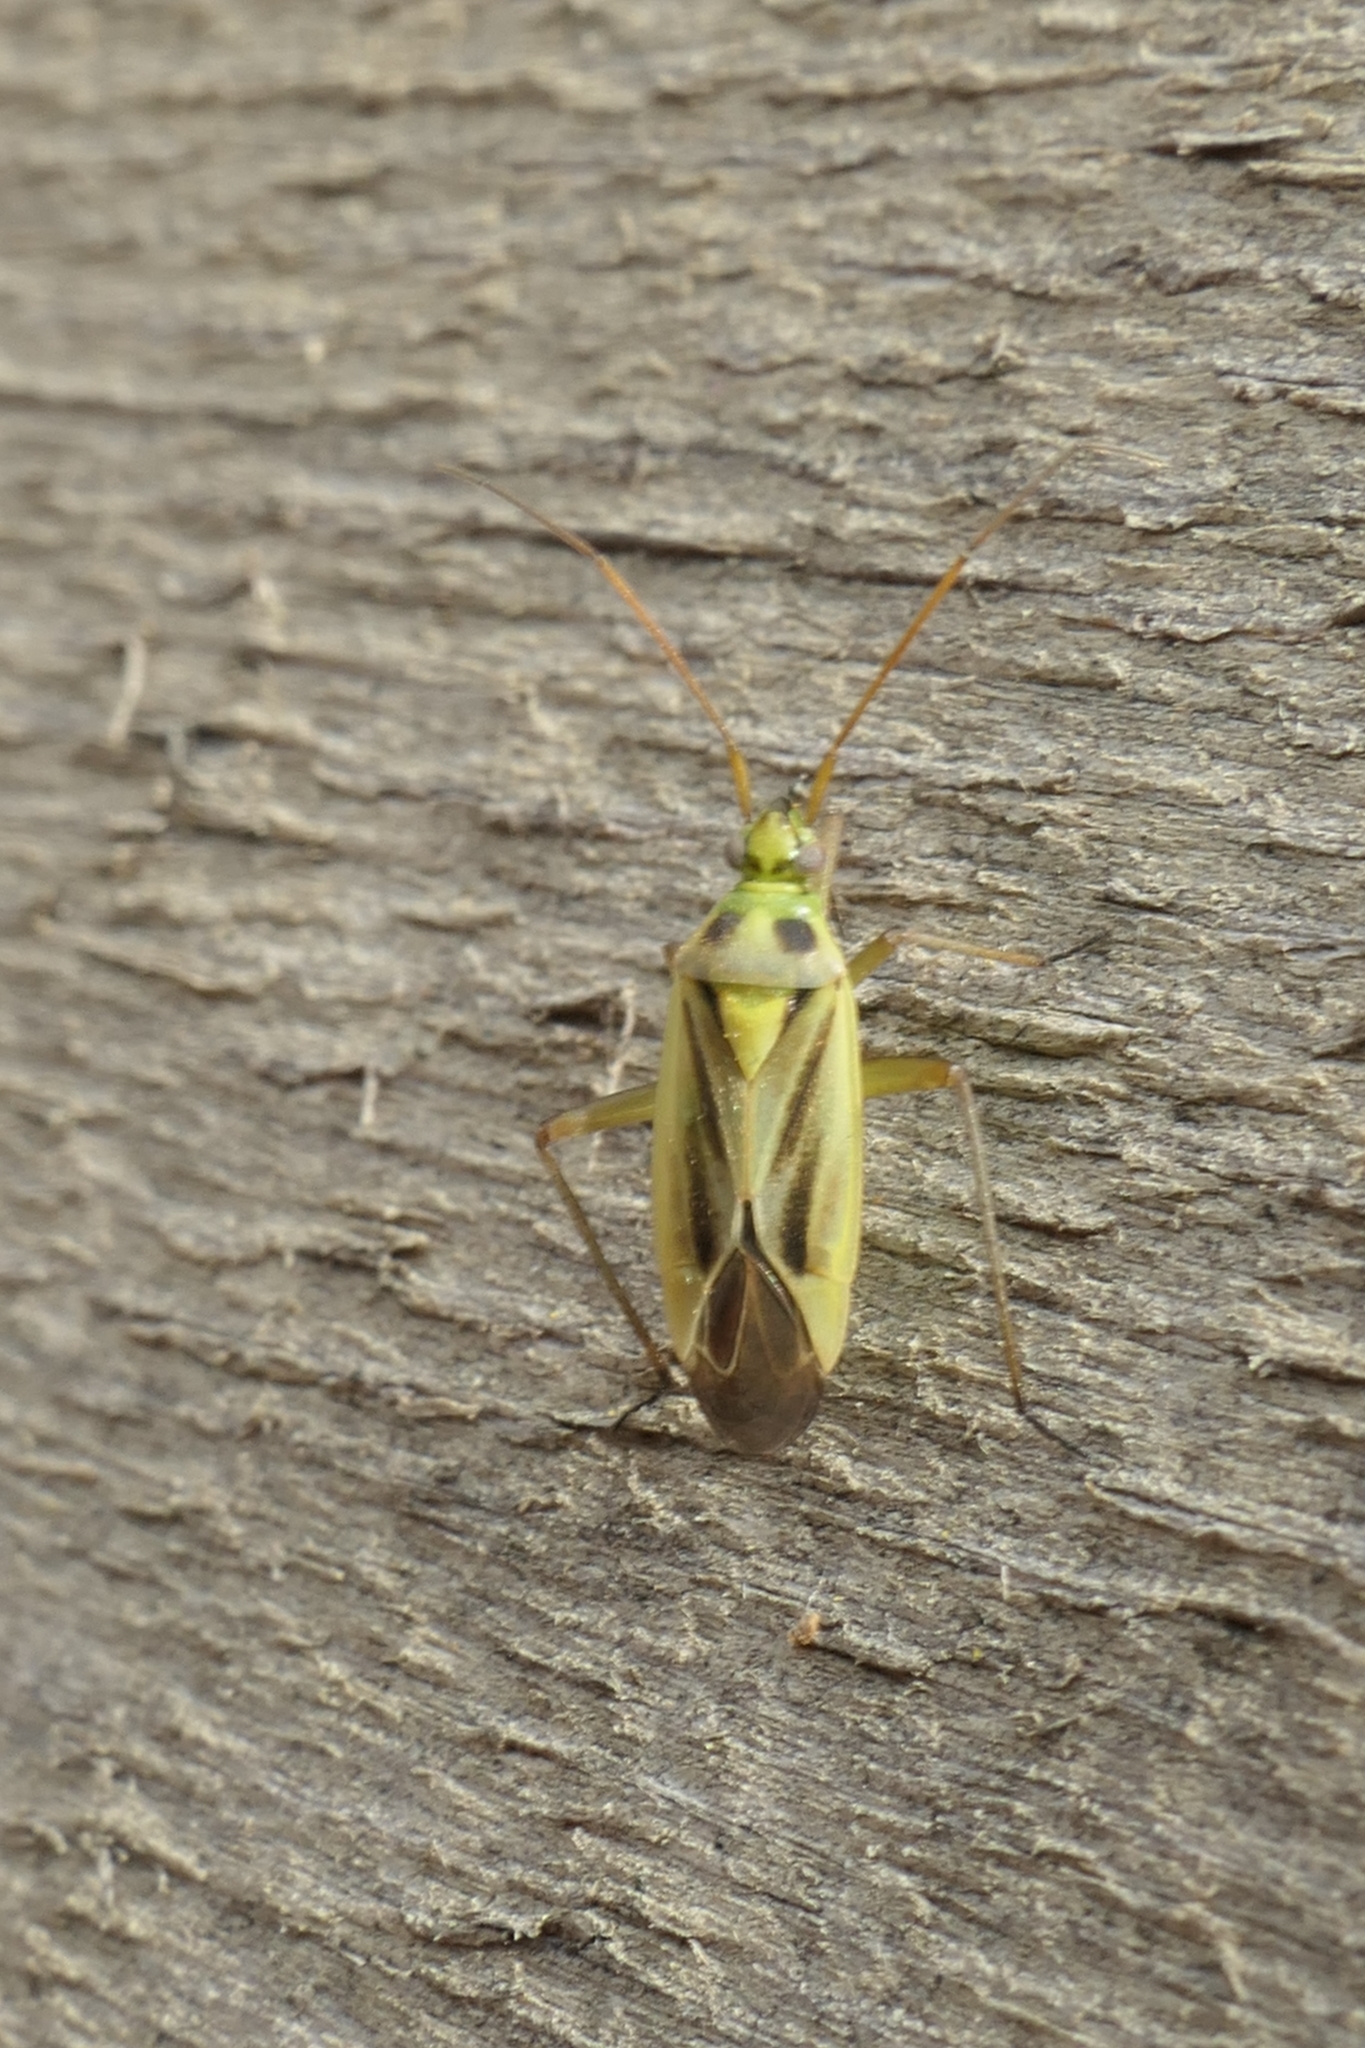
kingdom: Animalia
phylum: Arthropoda
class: Insecta
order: Hemiptera
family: Miridae
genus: Stenotus
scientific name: Stenotus binotatus
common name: Plant bug
